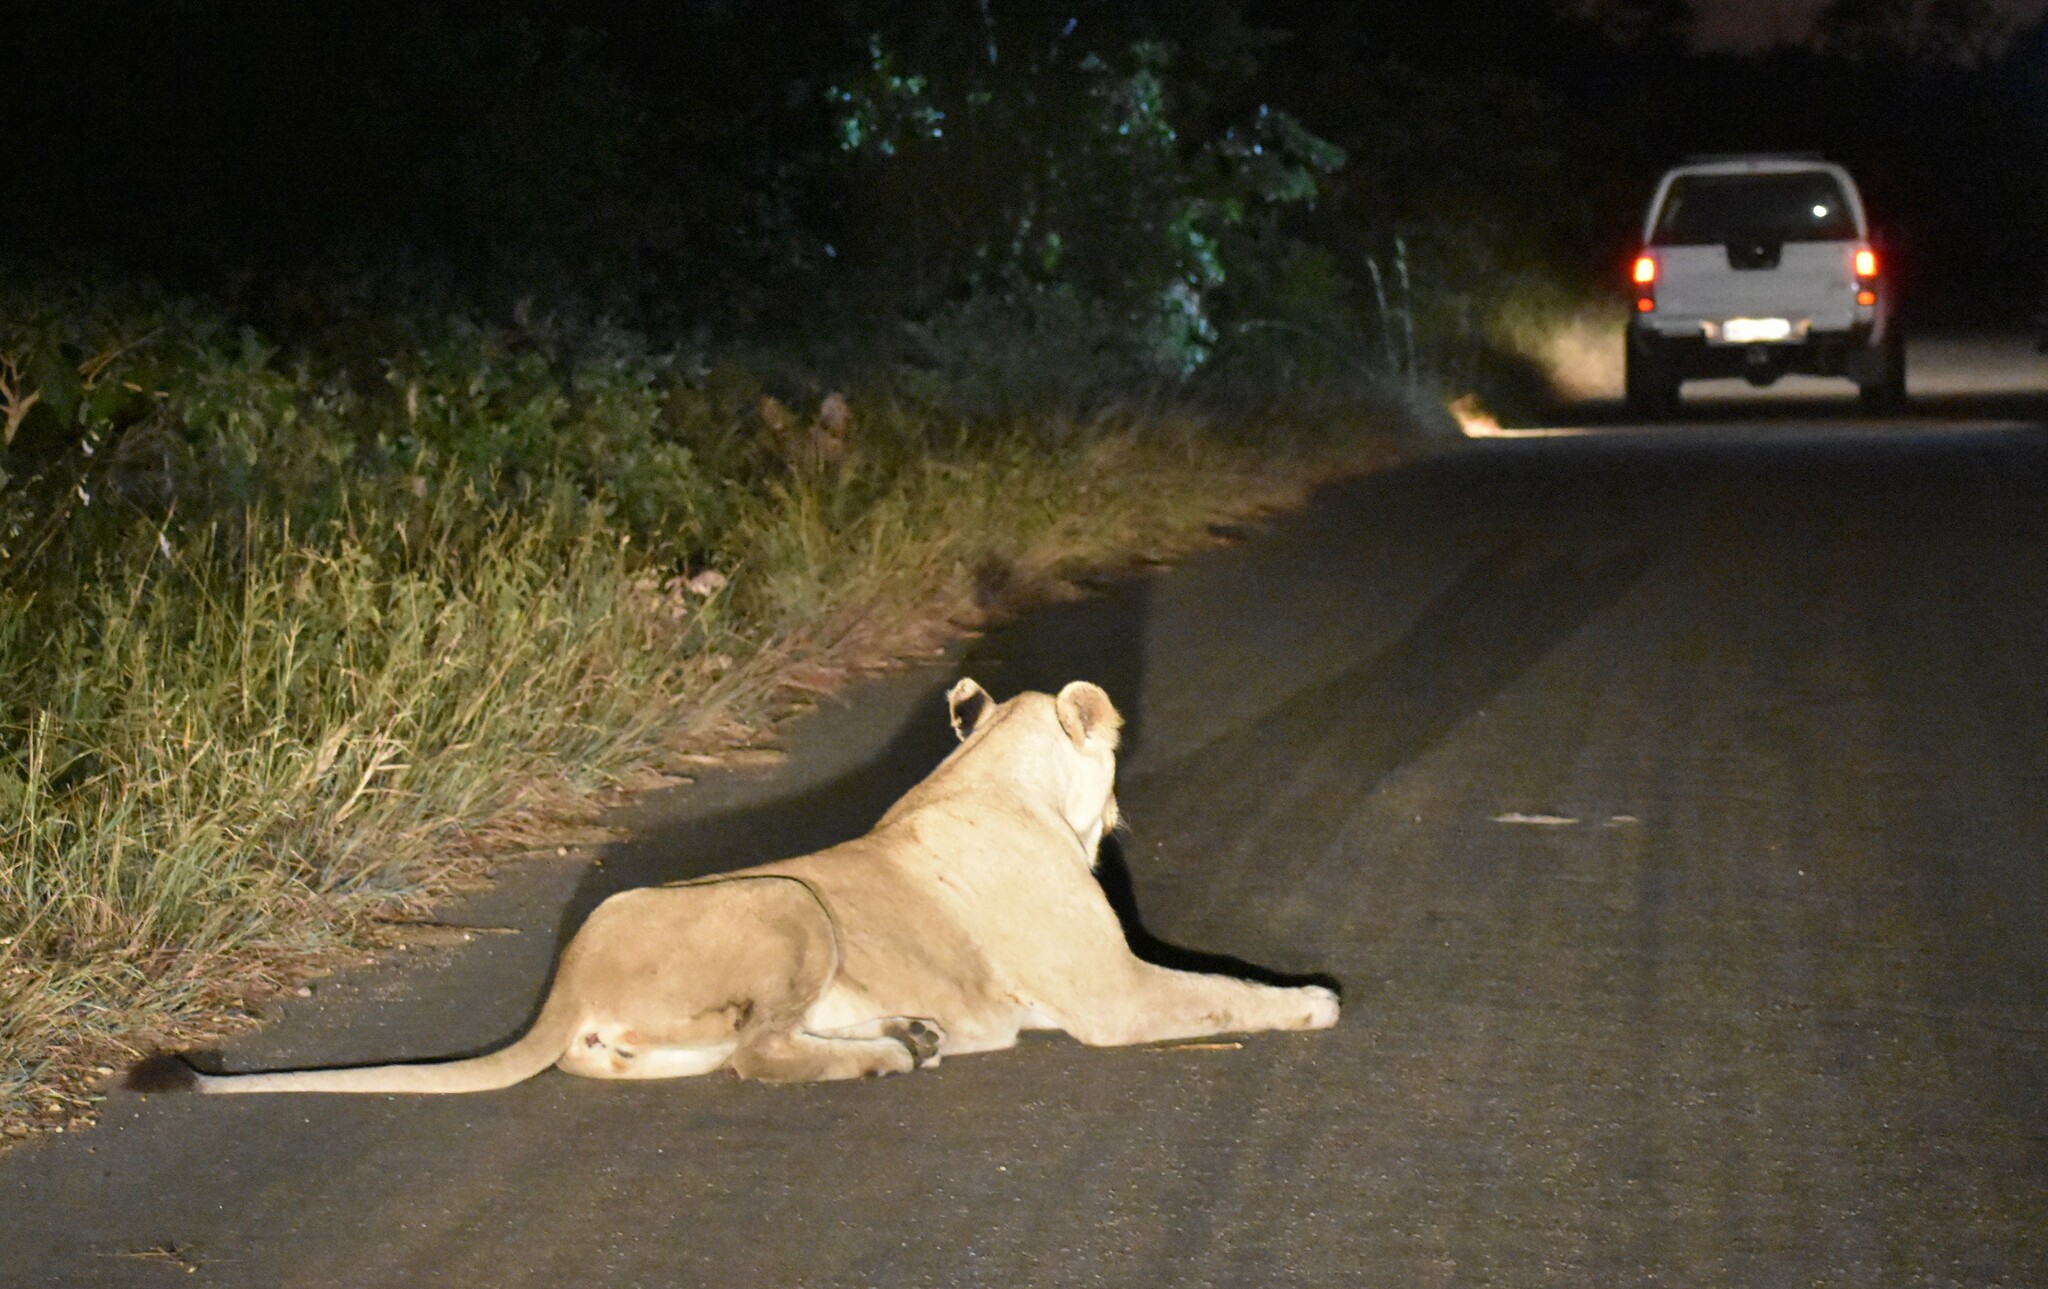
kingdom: Animalia
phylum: Chordata
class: Mammalia
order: Carnivora
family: Felidae
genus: Panthera
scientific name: Panthera leo
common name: Lion
